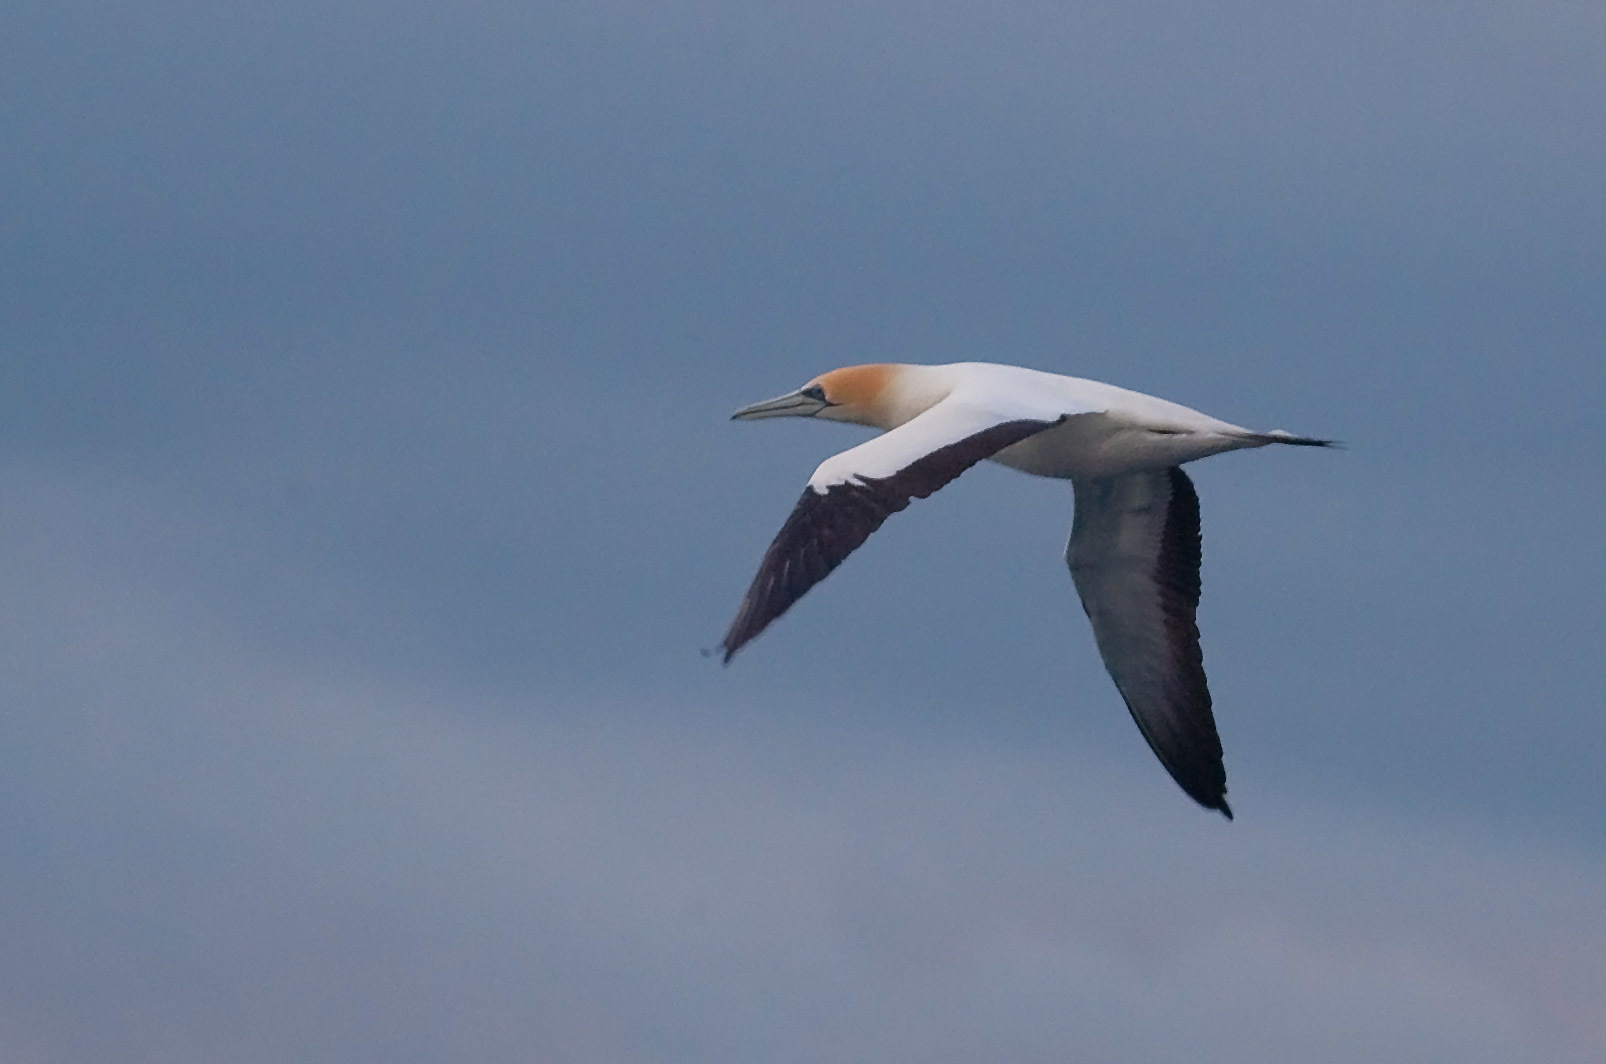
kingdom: Animalia
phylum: Chordata
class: Aves
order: Suliformes
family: Sulidae
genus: Morus
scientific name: Morus serrator
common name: Australasian gannet
